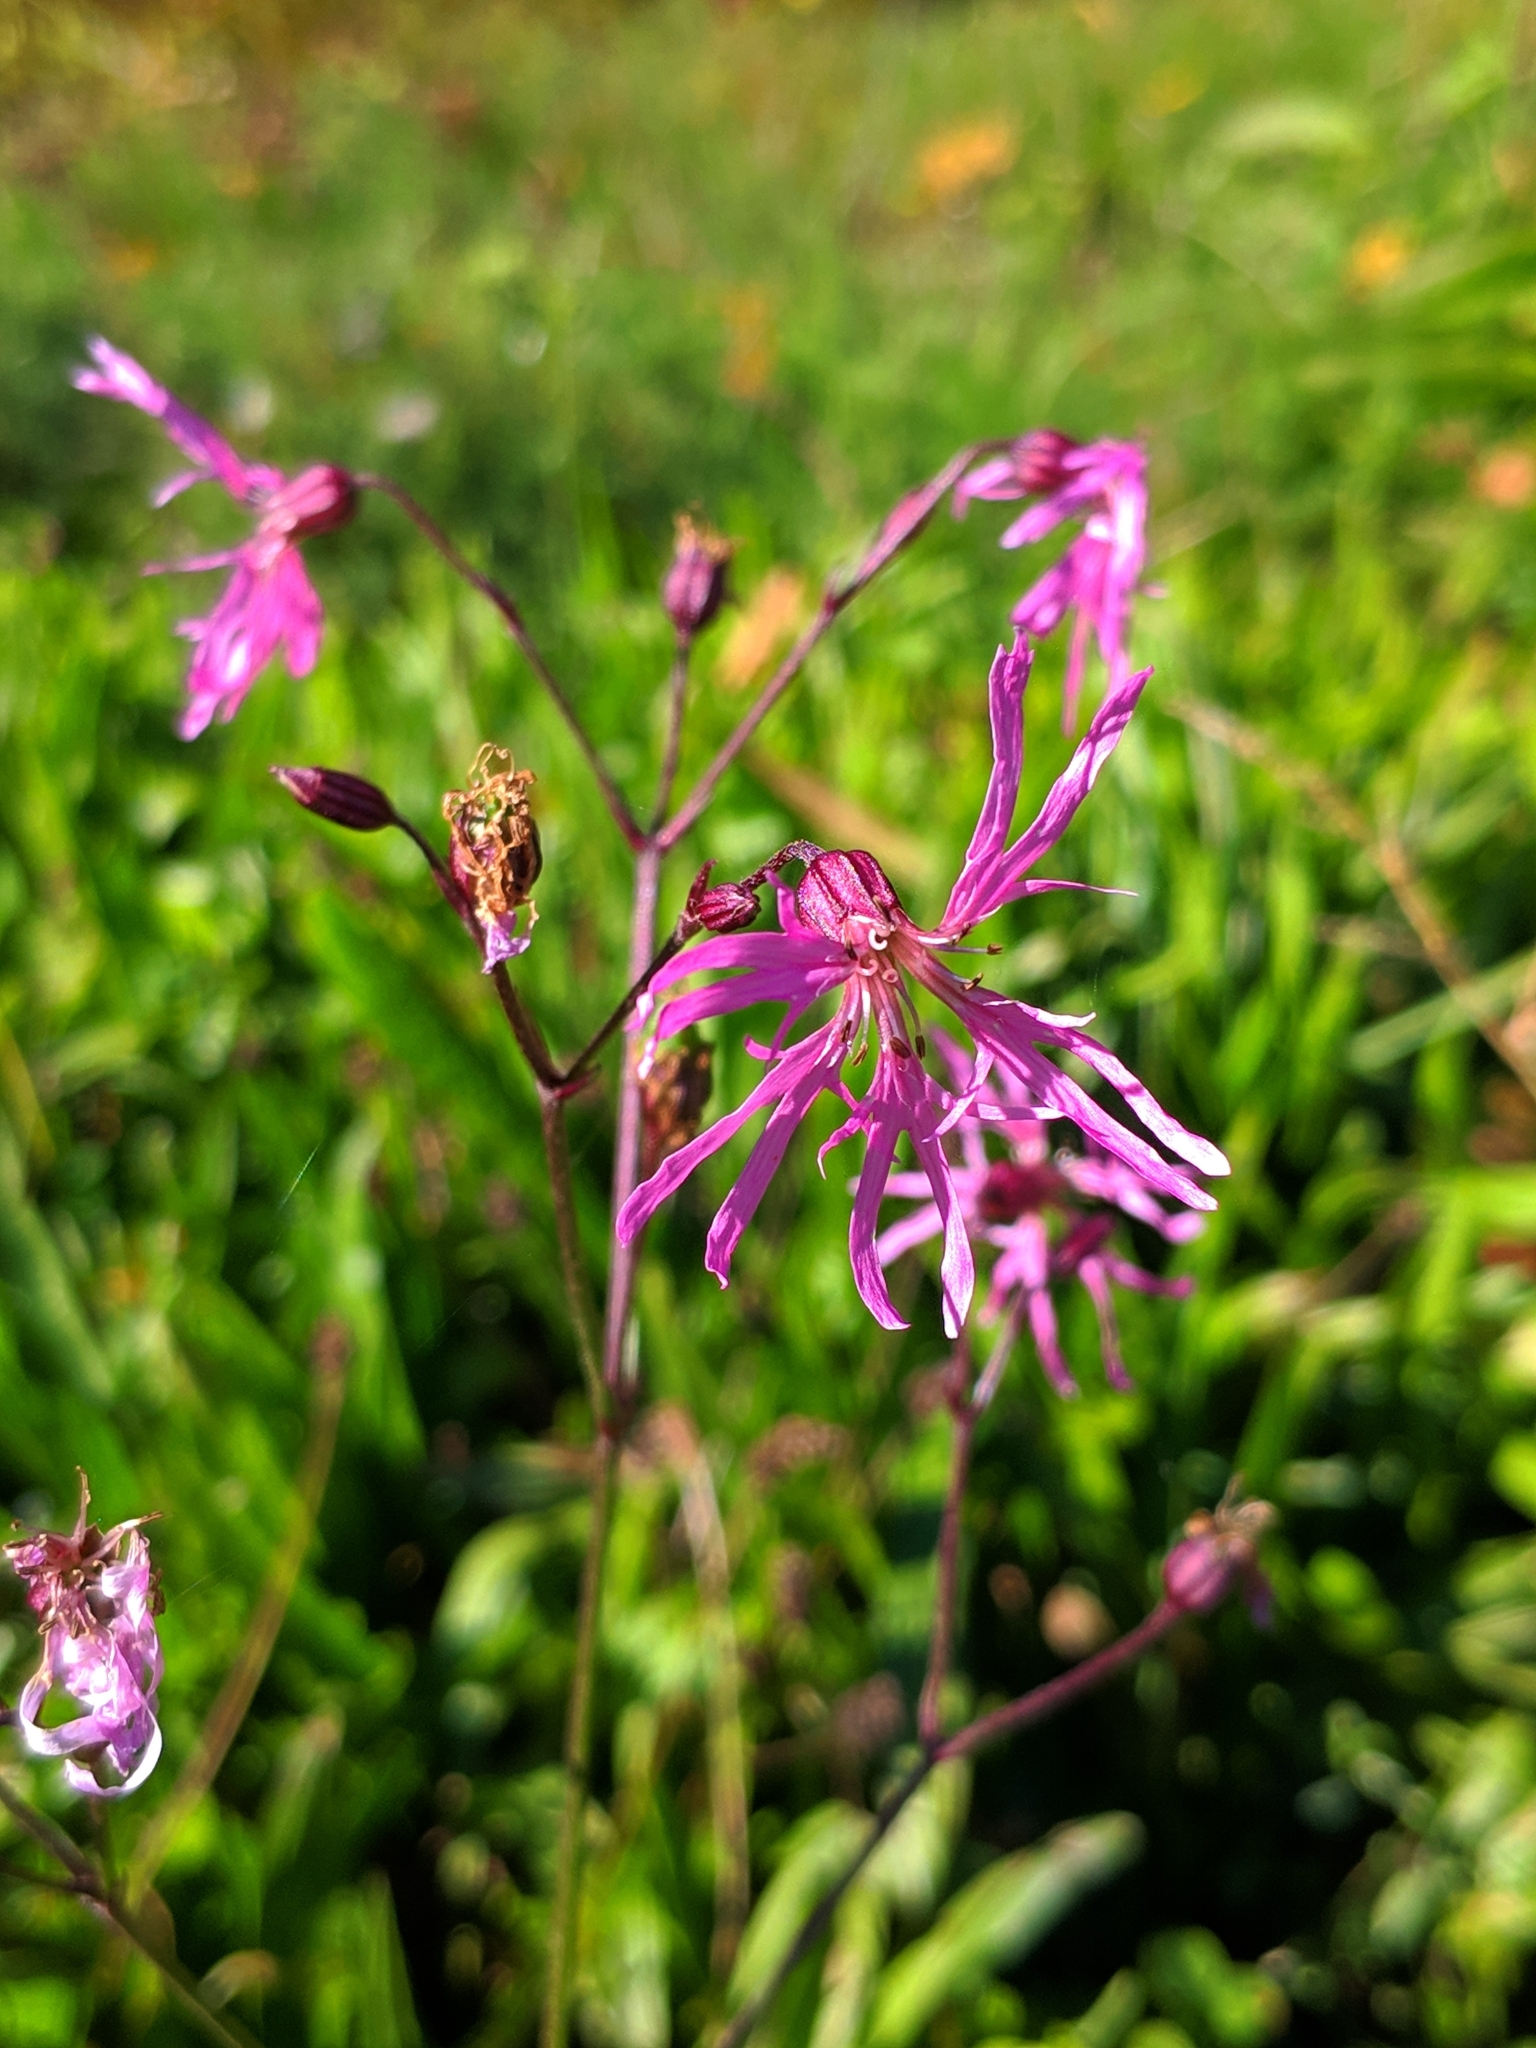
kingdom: Plantae
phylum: Tracheophyta
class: Magnoliopsida
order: Caryophyllales
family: Caryophyllaceae
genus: Silene
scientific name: Silene flos-cuculi
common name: Ragged-robin
